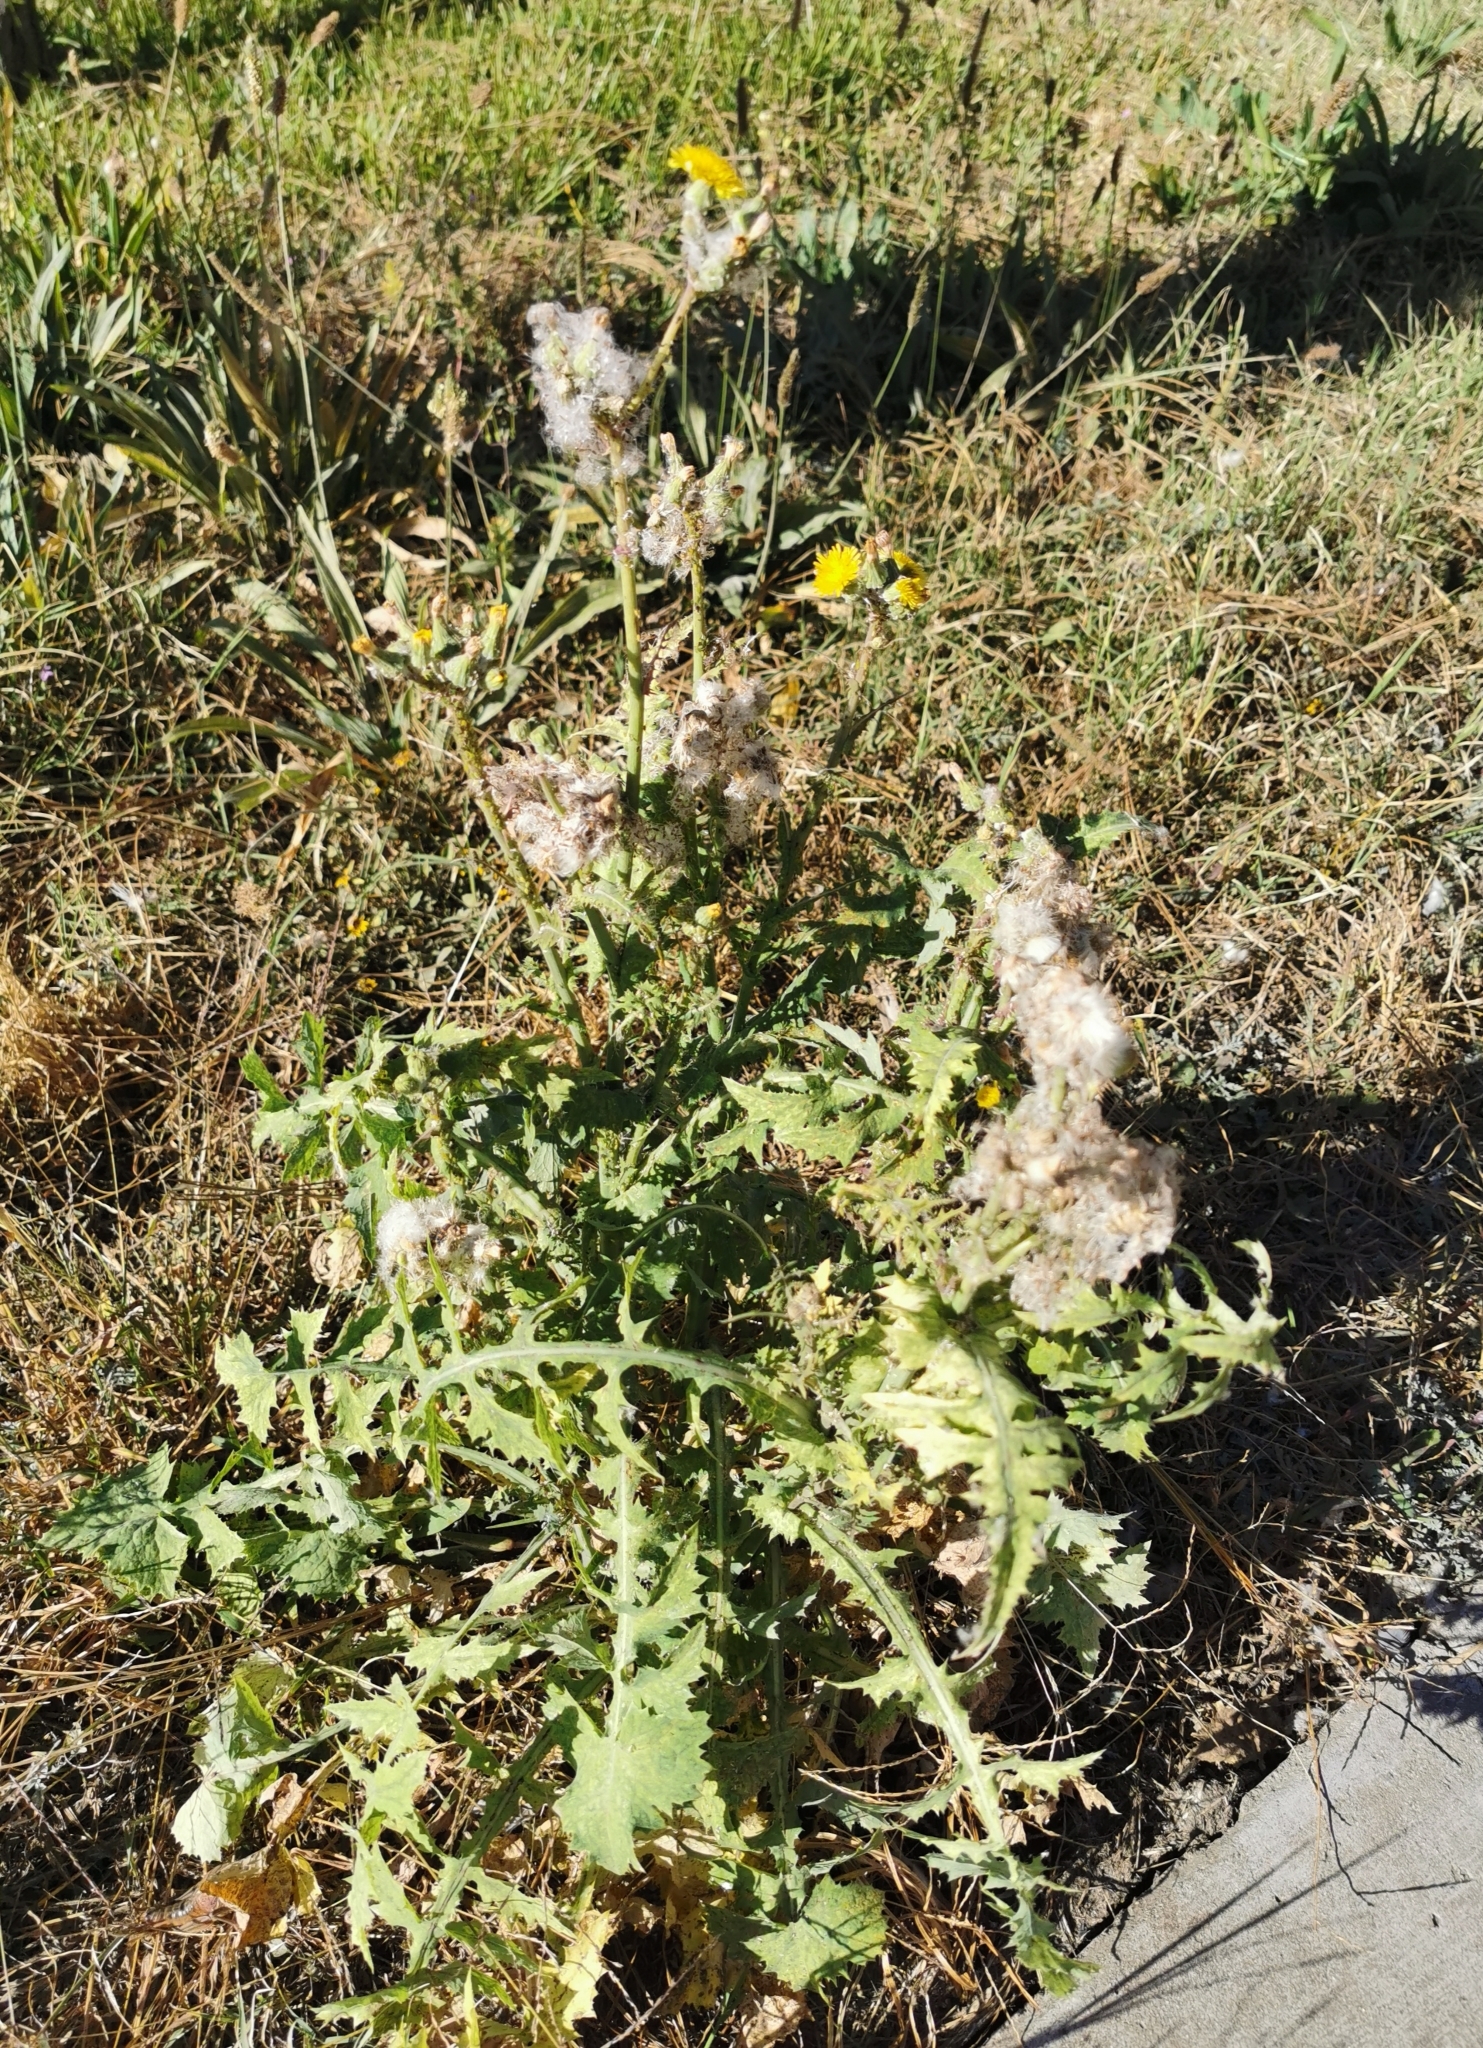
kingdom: Plantae
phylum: Tracheophyta
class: Magnoliopsida
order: Asterales
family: Asteraceae
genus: Sonchus
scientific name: Sonchus asper
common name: Prickly sow-thistle
